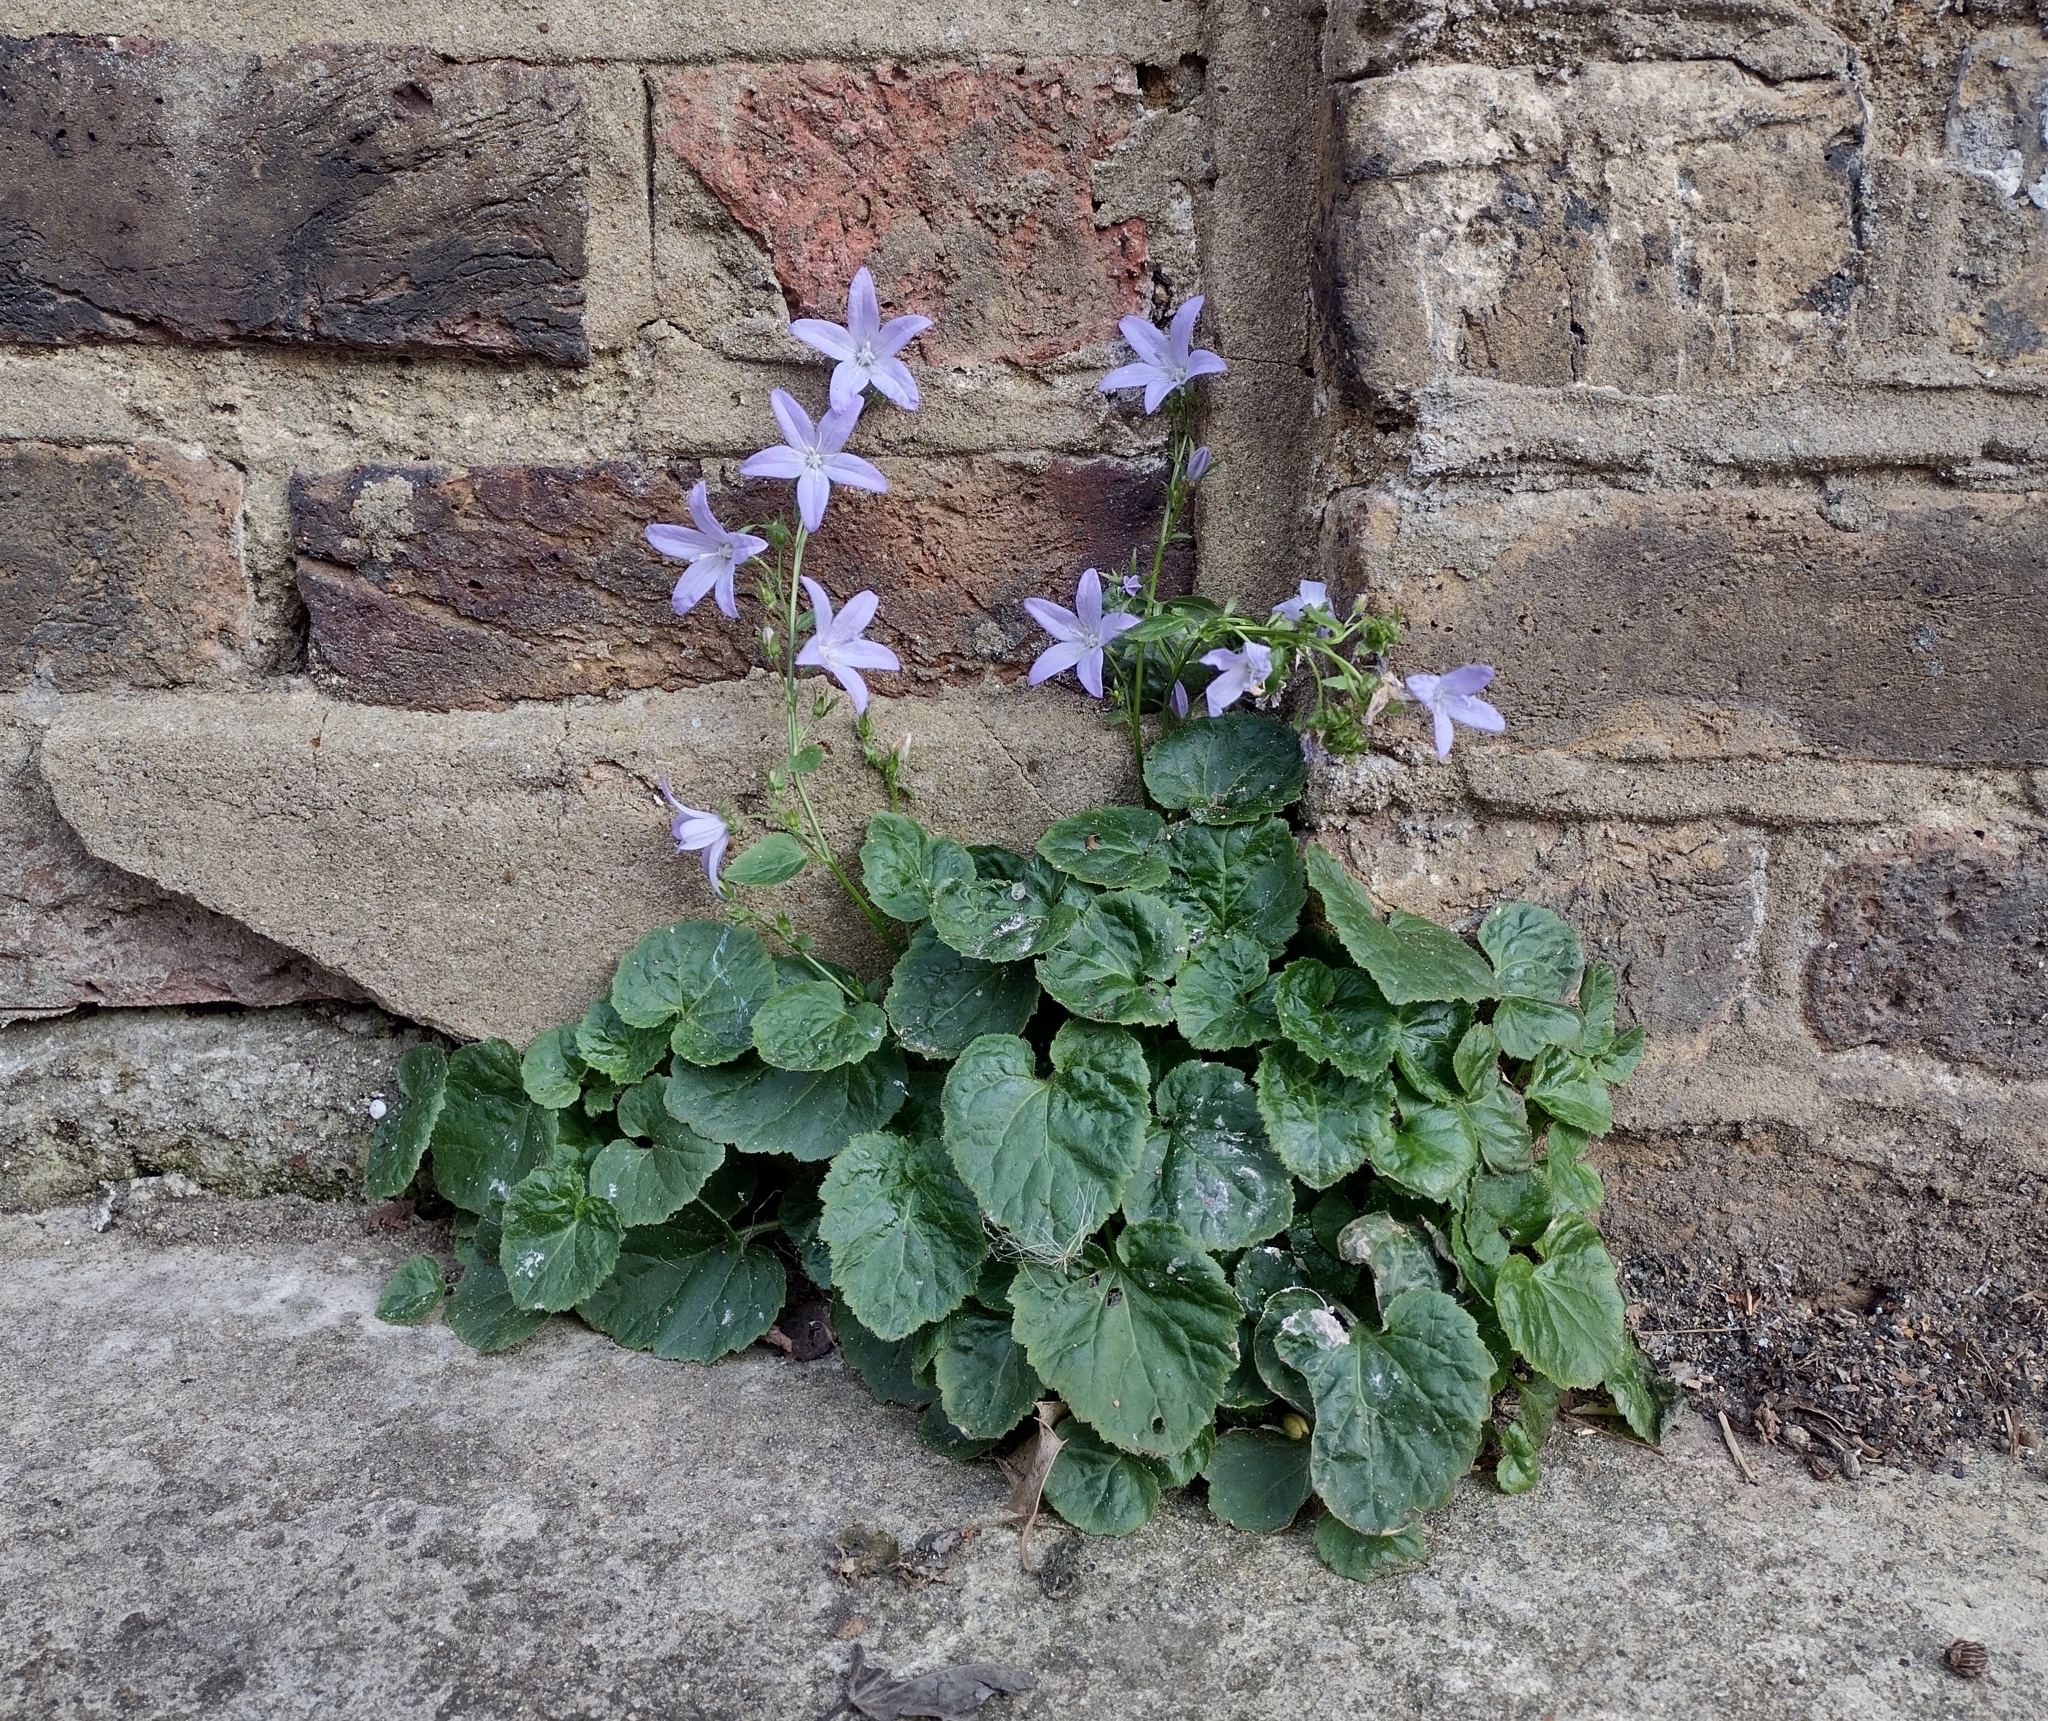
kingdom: Plantae
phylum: Tracheophyta
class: Magnoliopsida
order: Asterales
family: Campanulaceae
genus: Campanula
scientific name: Campanula poscharskyana
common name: Trailing bellflower
